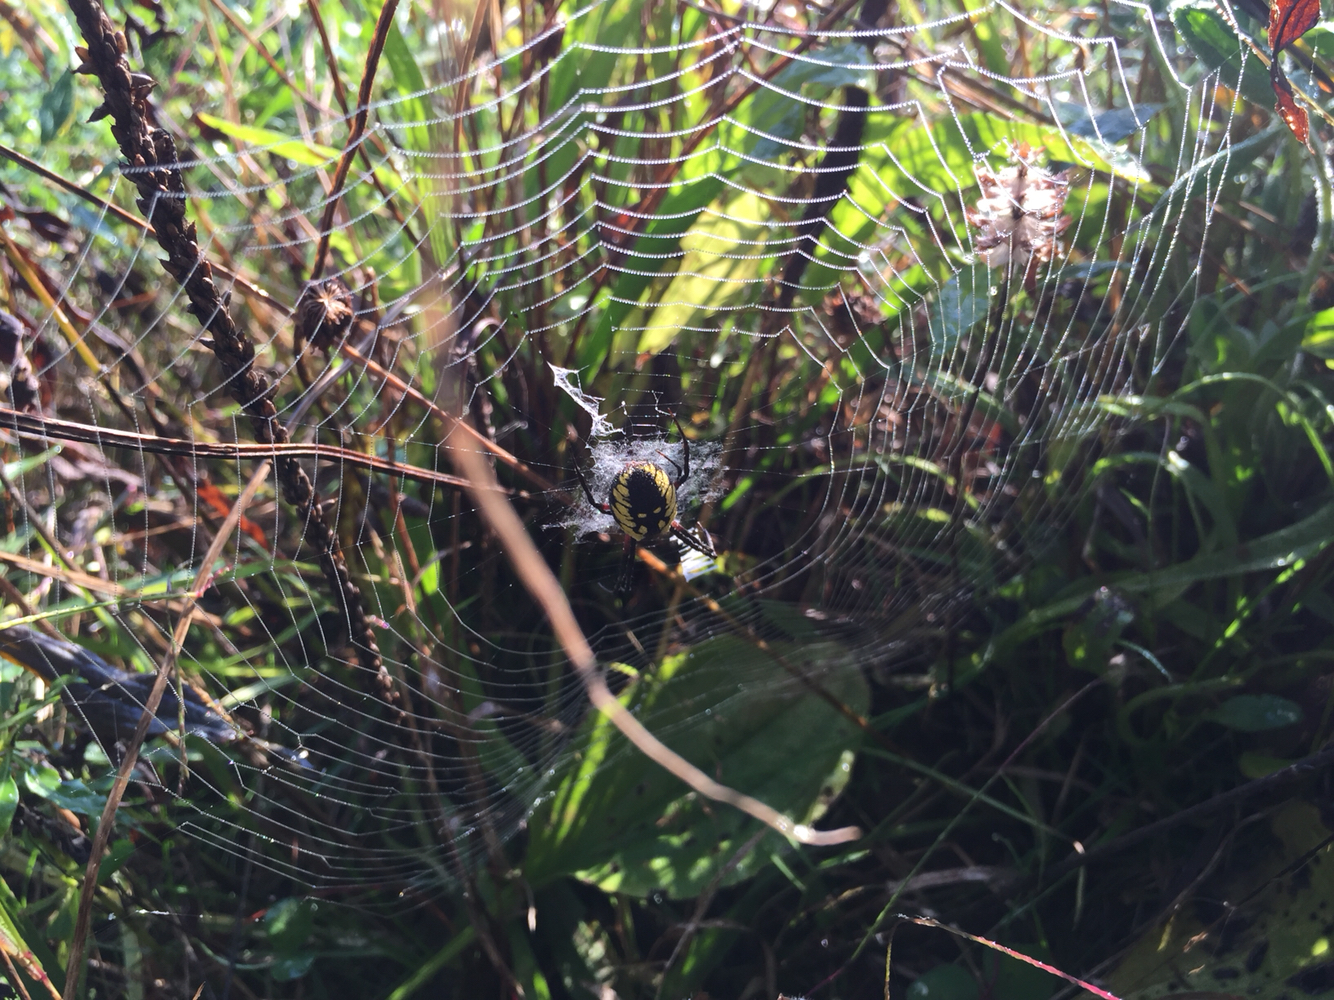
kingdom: Animalia
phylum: Arthropoda
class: Arachnida
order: Araneae
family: Araneidae
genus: Argiope
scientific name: Argiope aurantia
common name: Orb weavers
